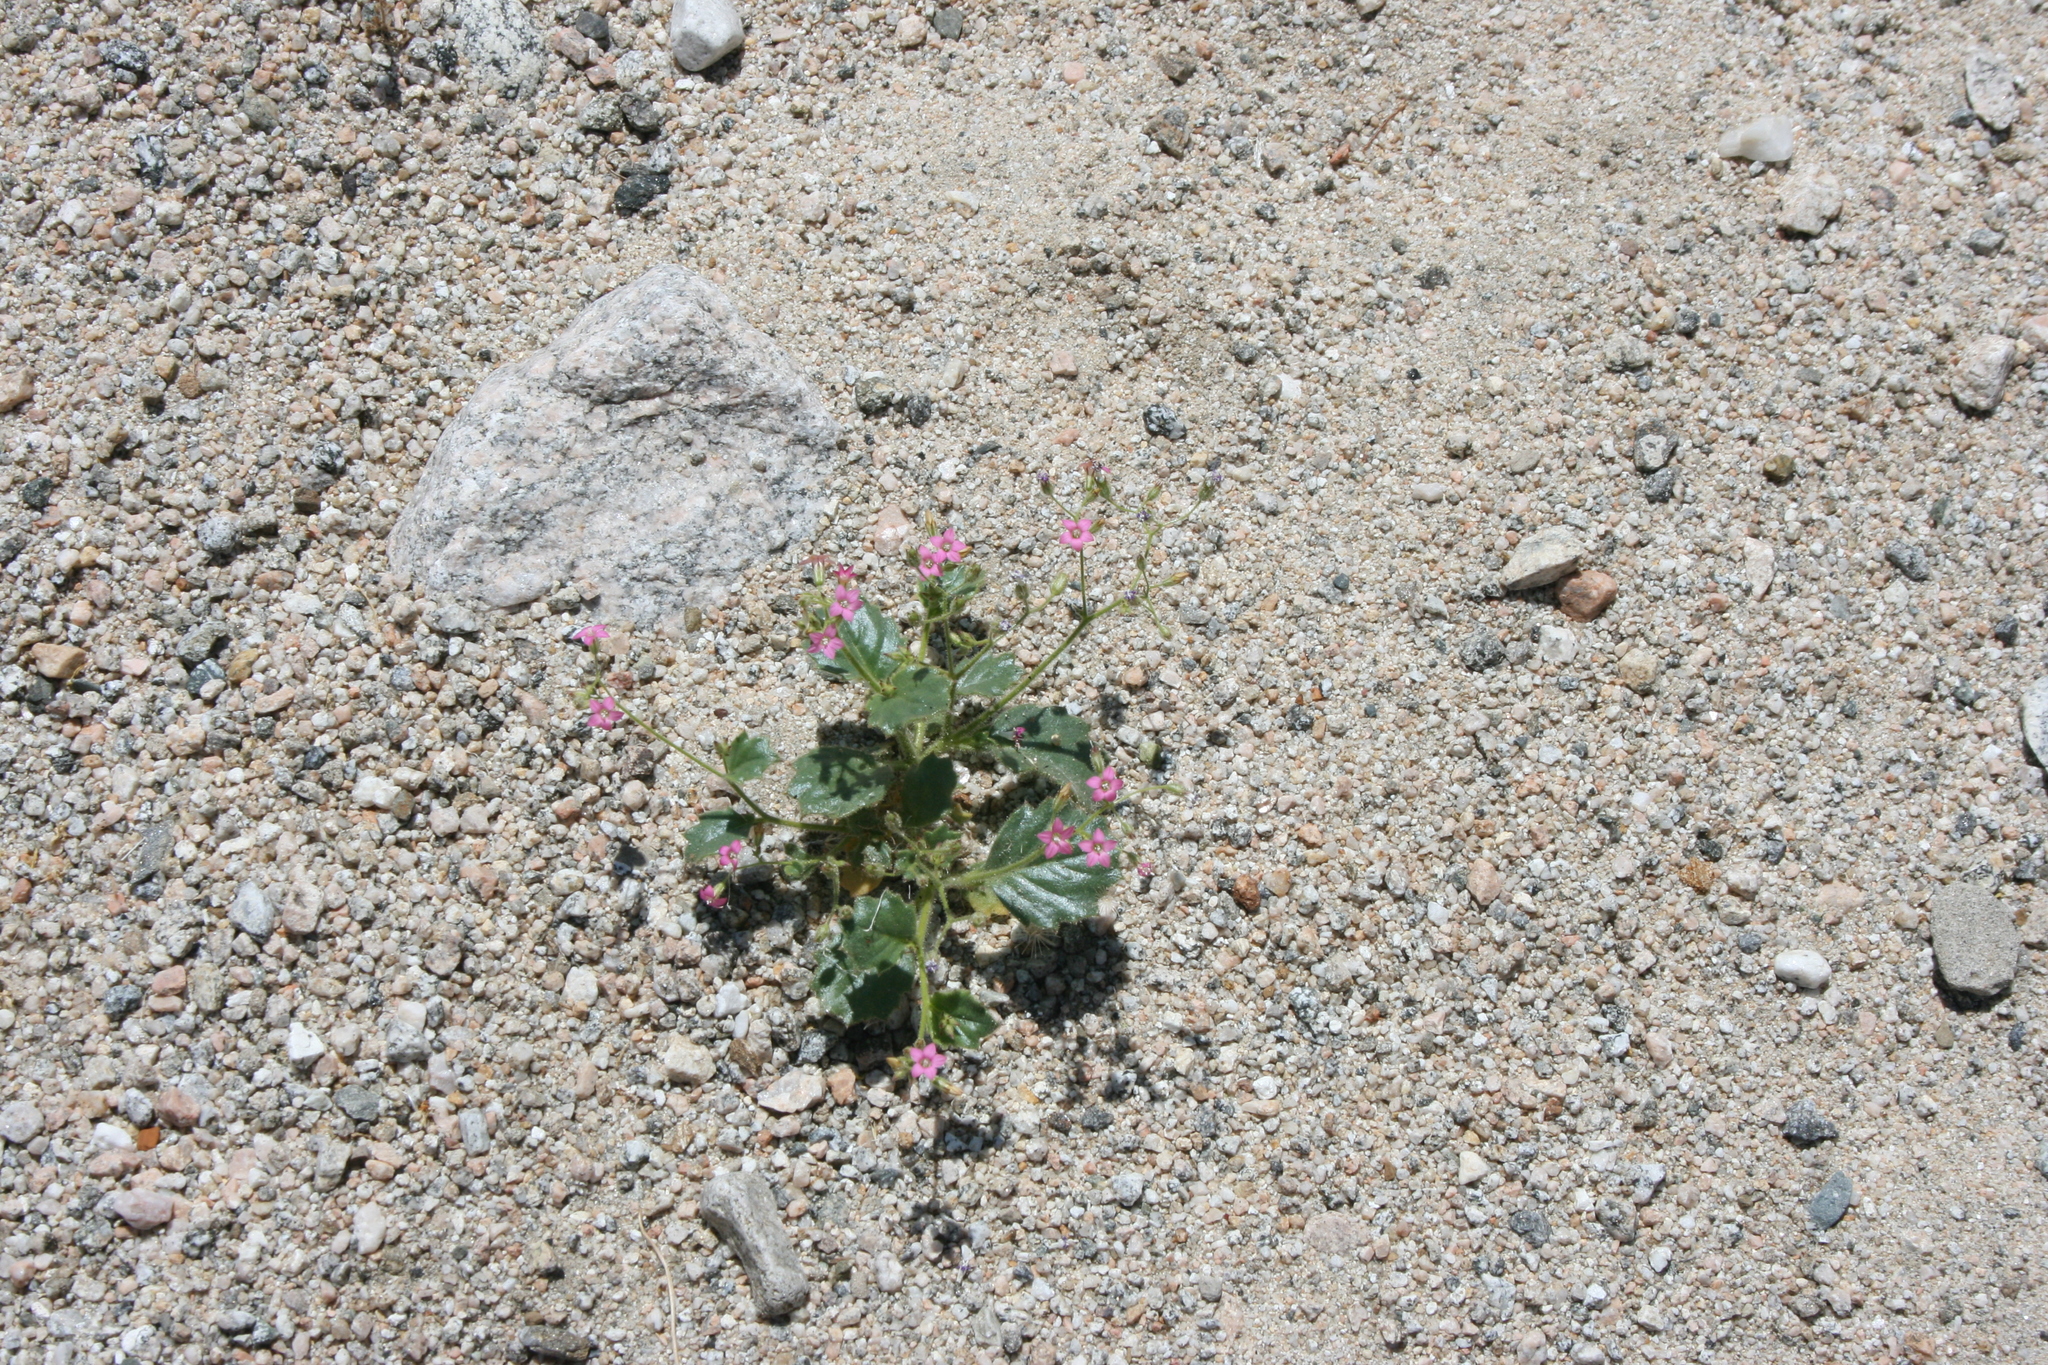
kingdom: Plantae
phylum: Tracheophyta
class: Magnoliopsida
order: Ericales
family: Polemoniaceae
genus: Aliciella
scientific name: Aliciella latifolia
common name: Broad-leaf gilia
